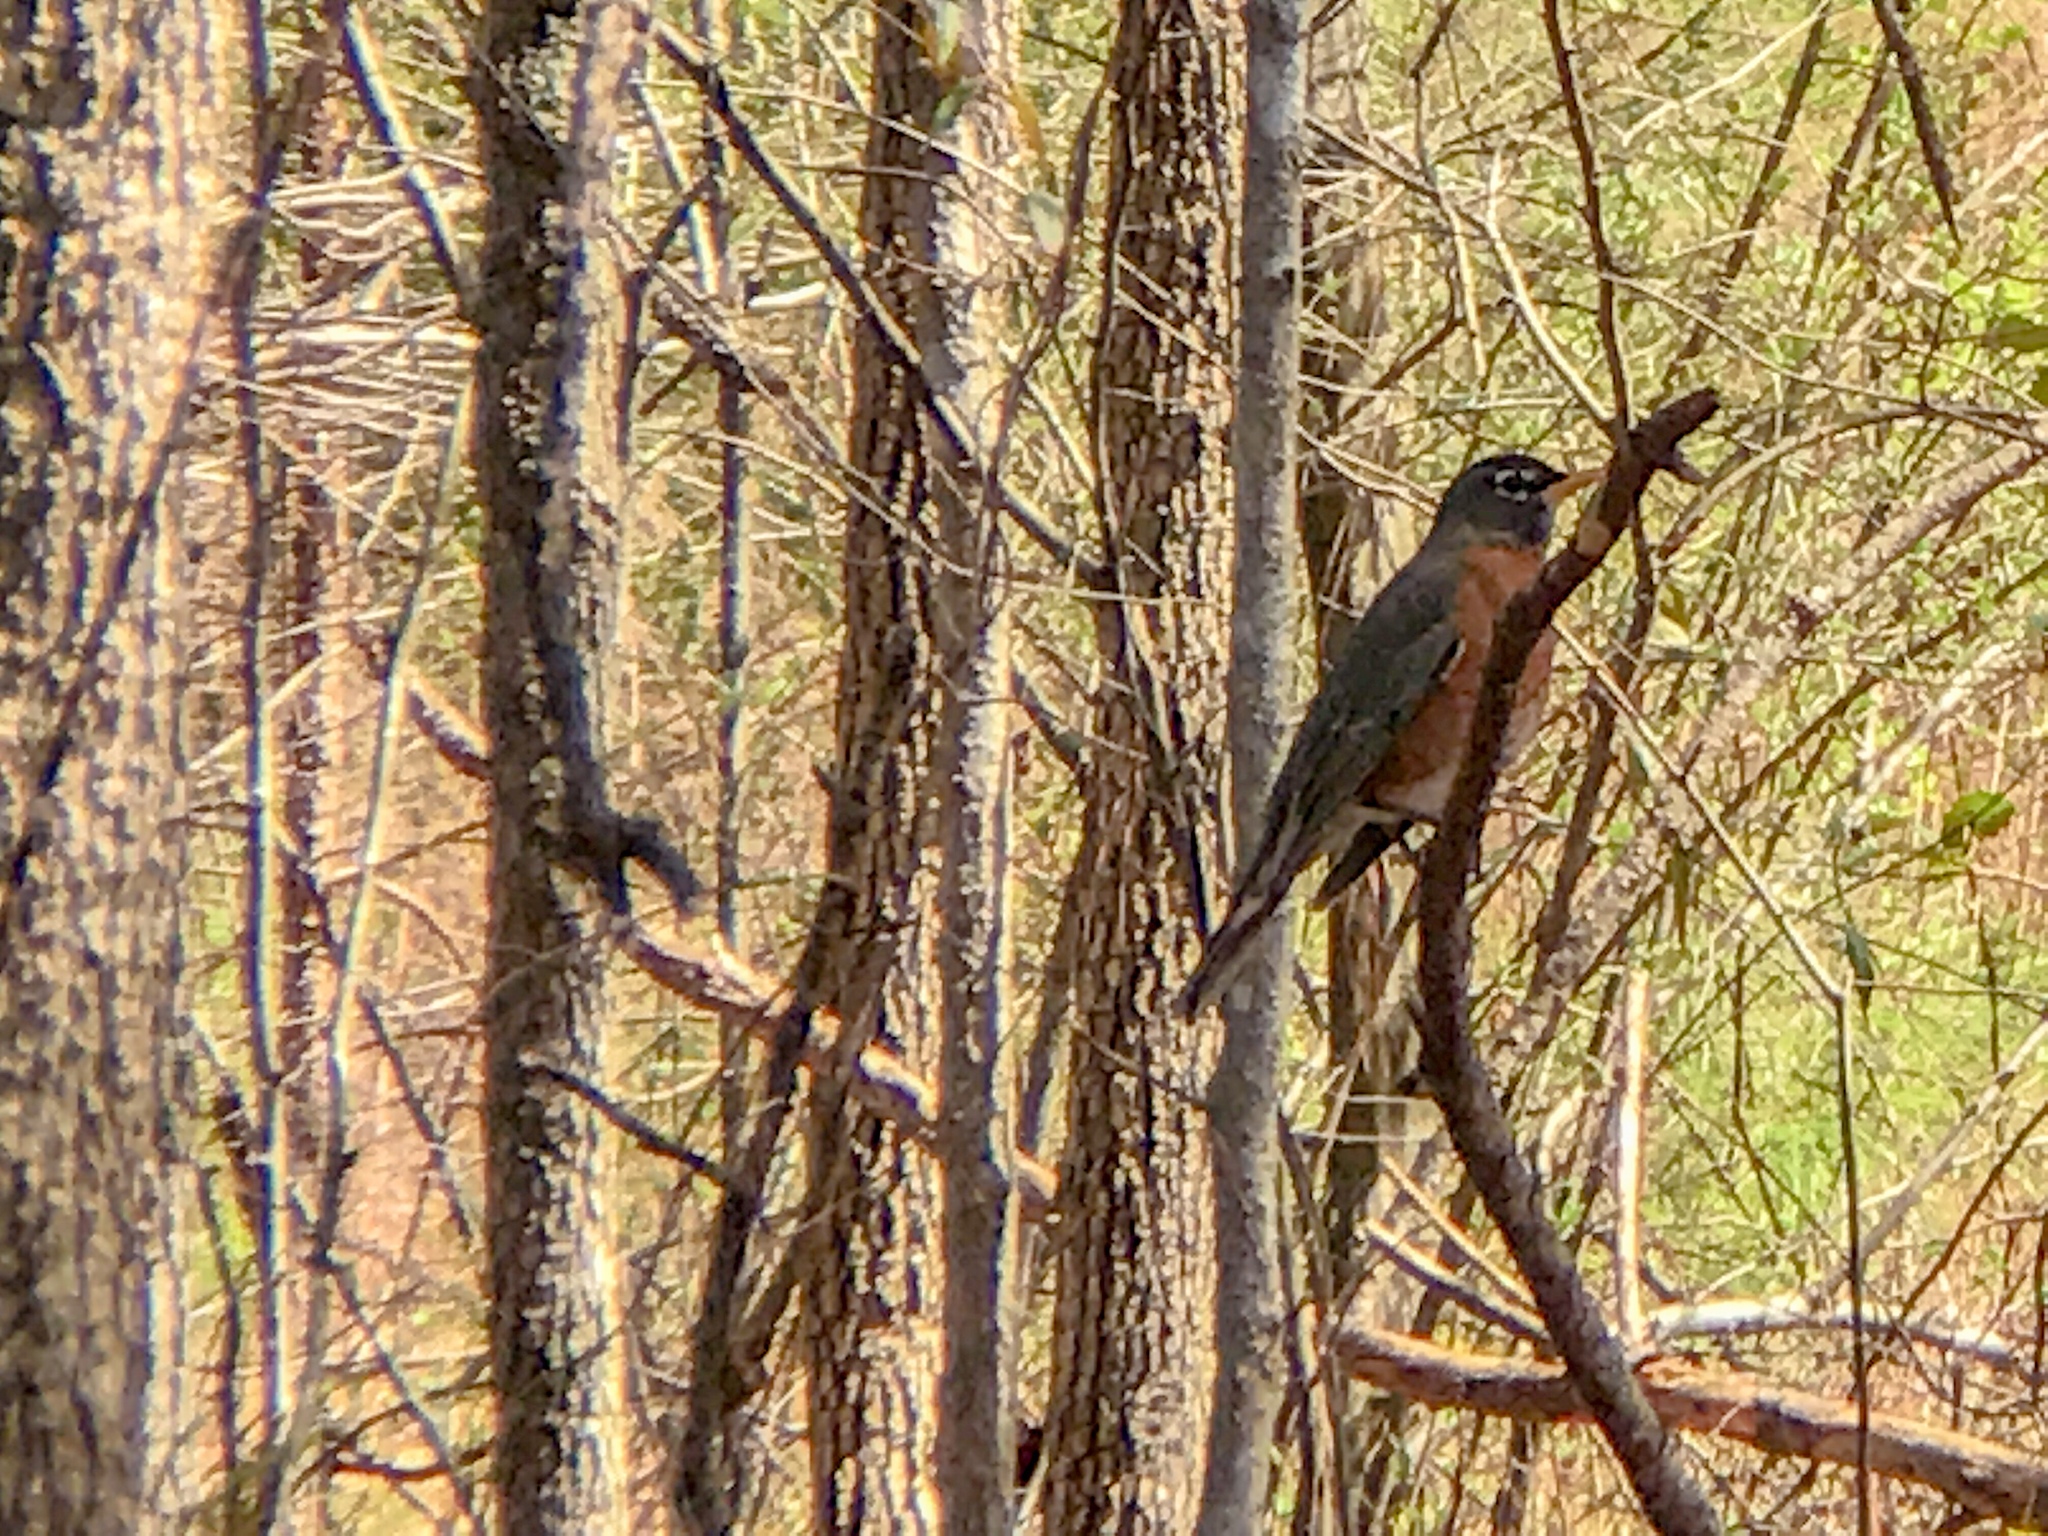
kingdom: Animalia
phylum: Chordata
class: Aves
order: Passeriformes
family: Turdidae
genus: Turdus
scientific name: Turdus migratorius
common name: American robin
